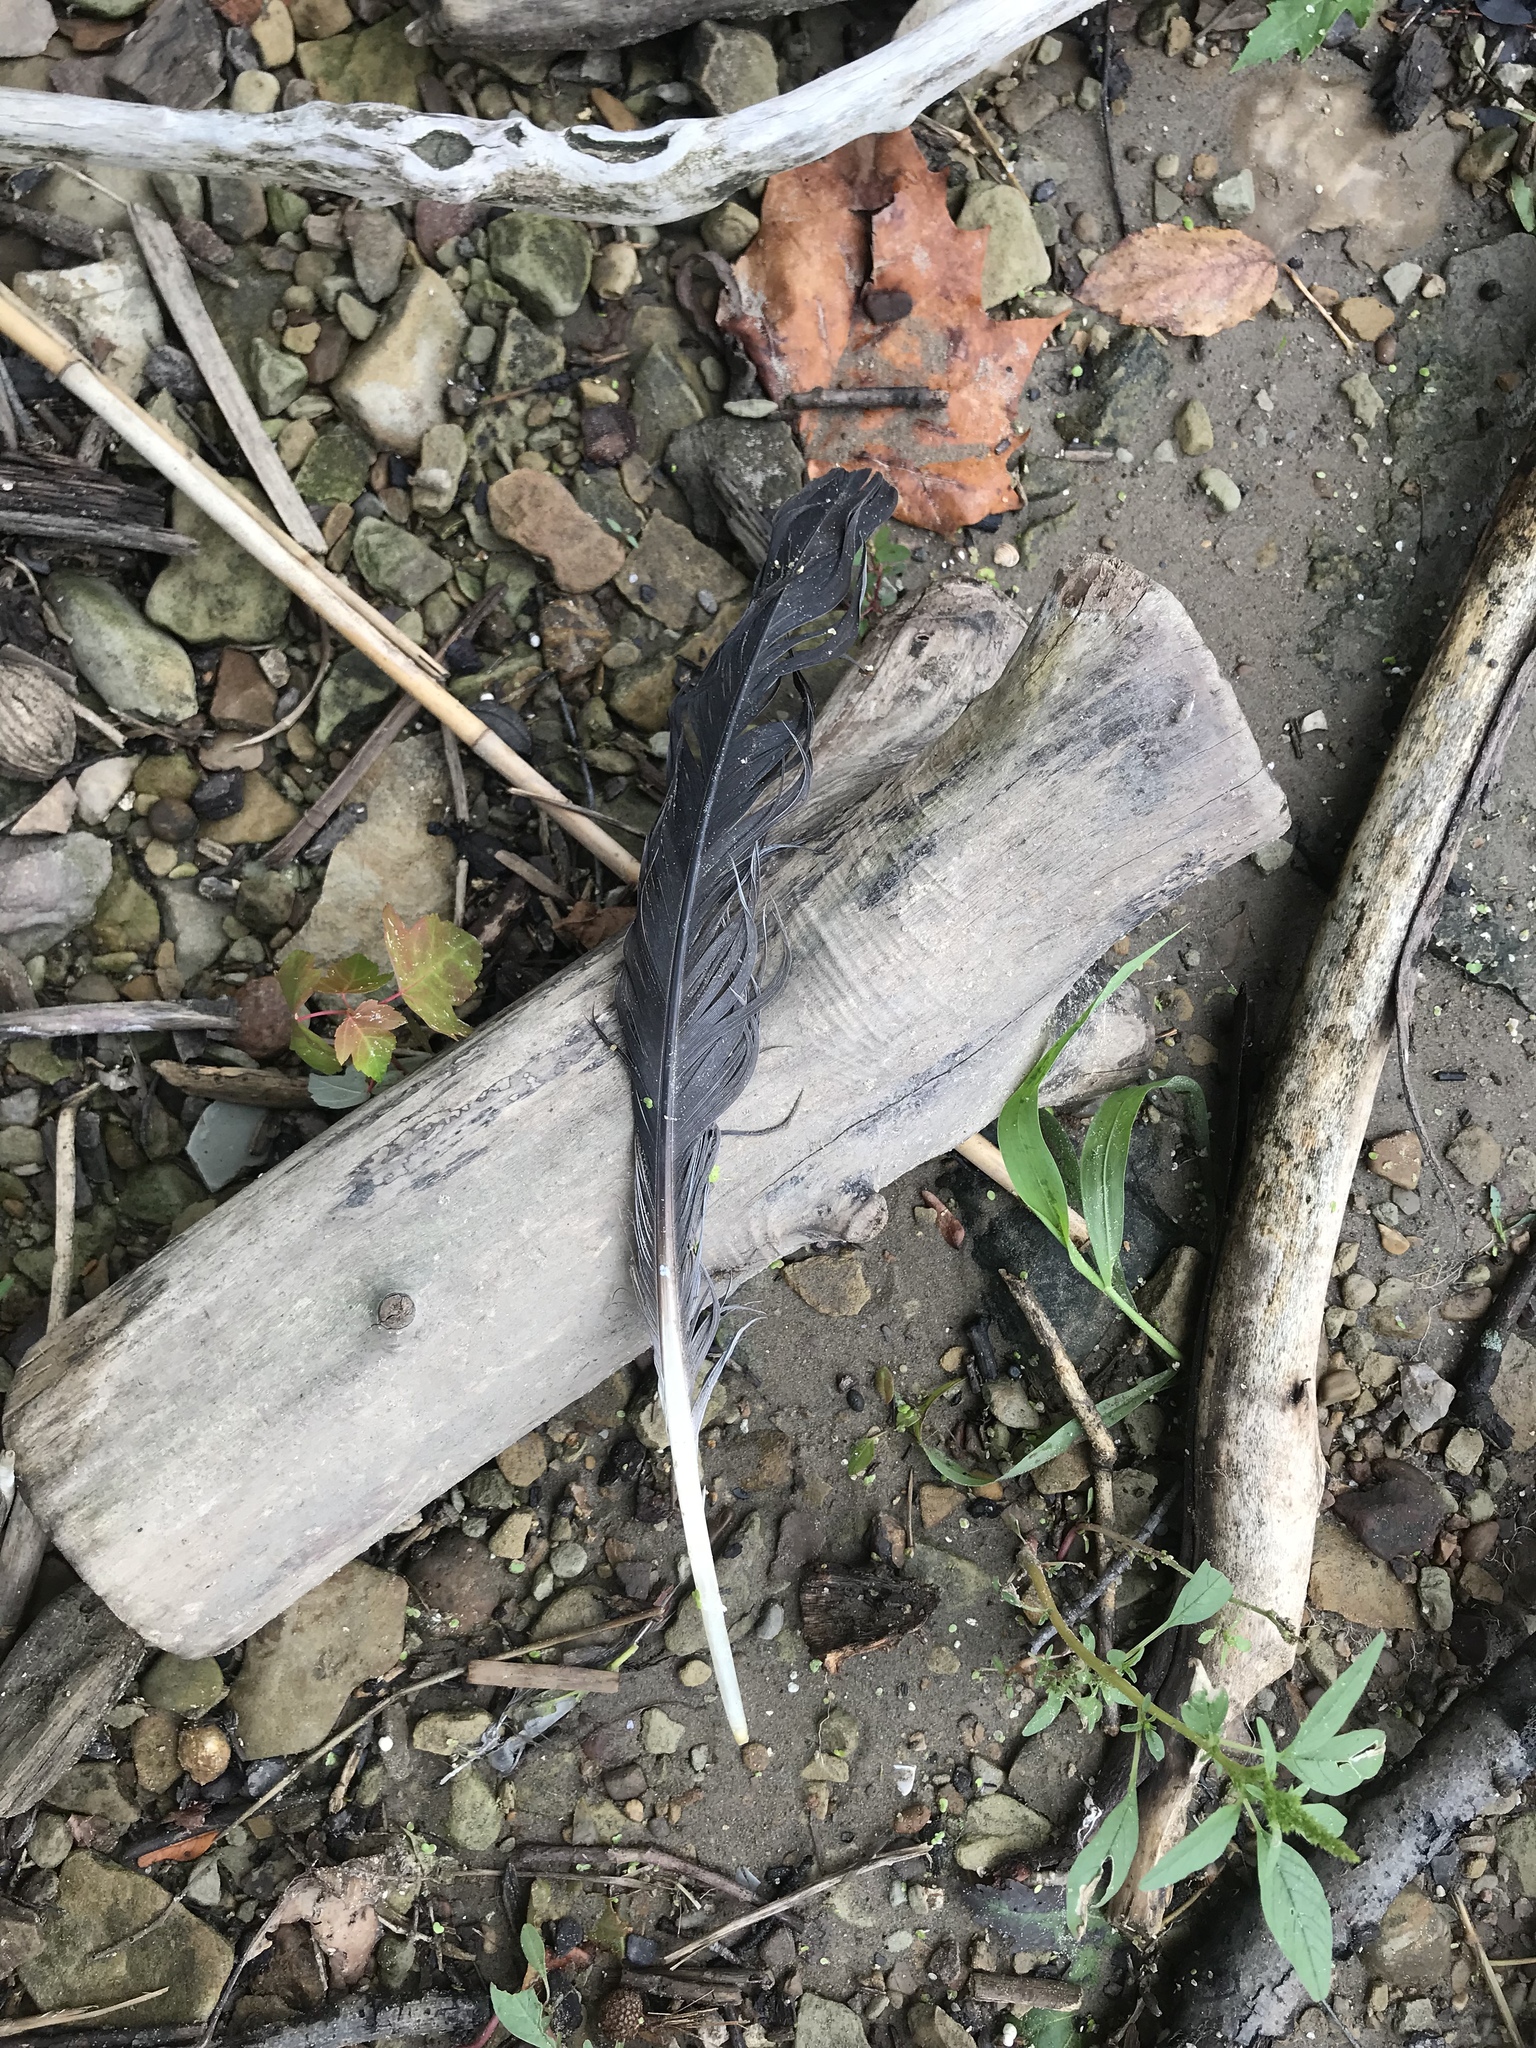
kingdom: Animalia
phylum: Chordata
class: Aves
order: Pelecaniformes
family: Ardeidae
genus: Ardea
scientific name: Ardea herodias
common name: Great blue heron
